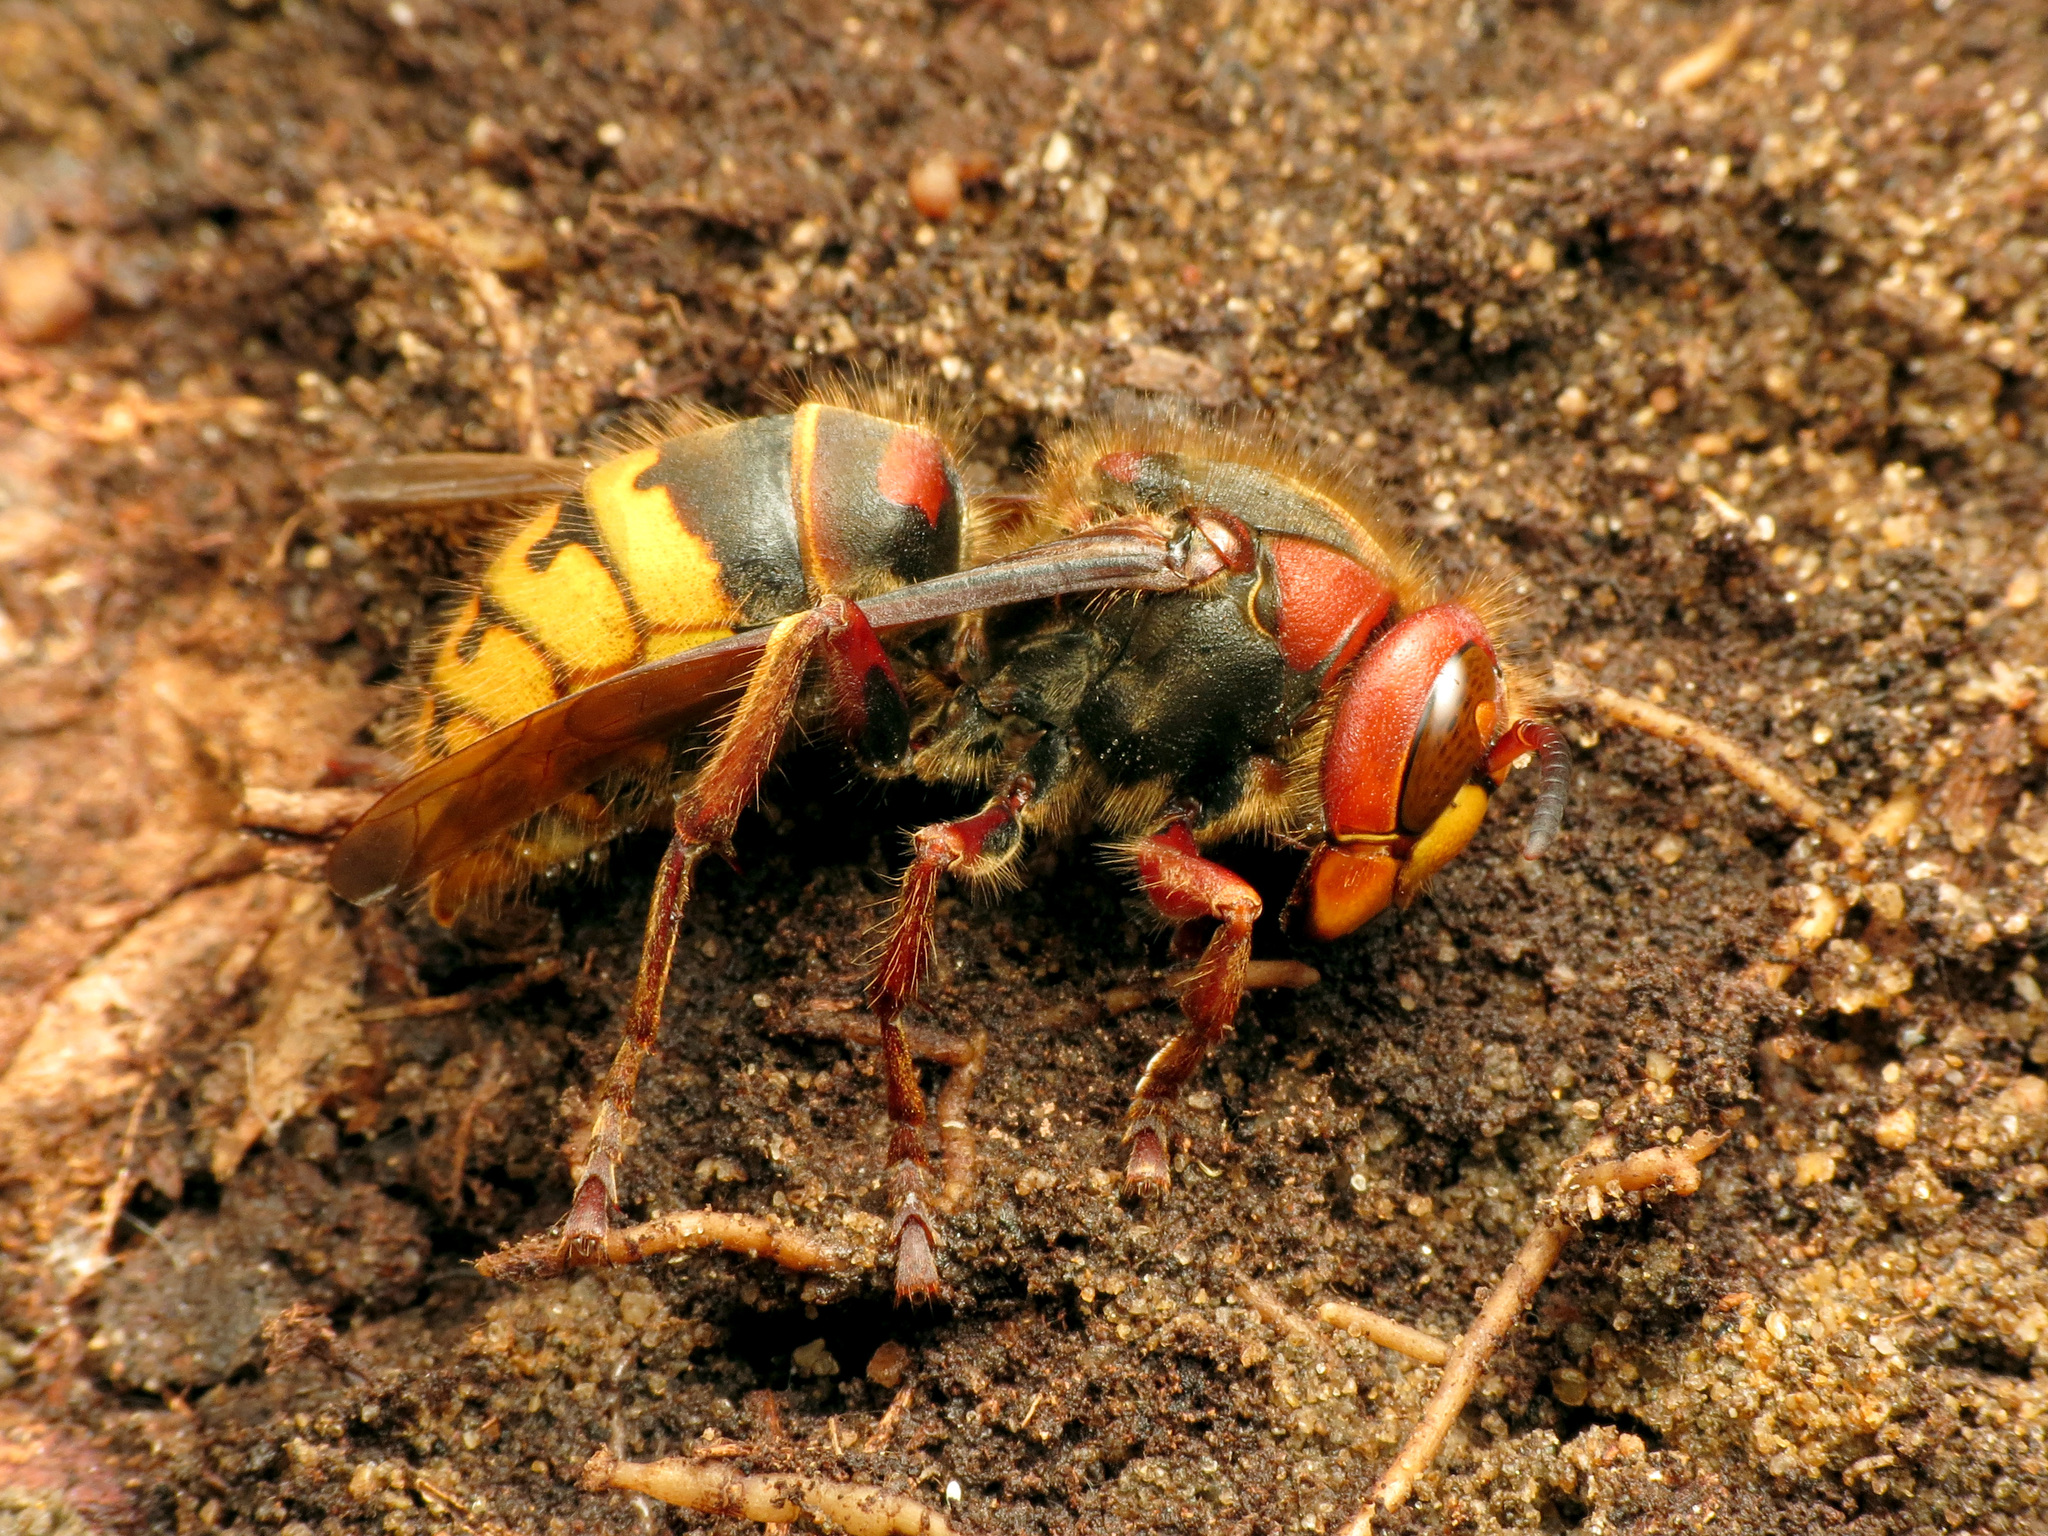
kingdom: Animalia
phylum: Arthropoda
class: Insecta
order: Hymenoptera
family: Vespidae
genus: Vespa
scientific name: Vespa crabro
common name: Hornet
